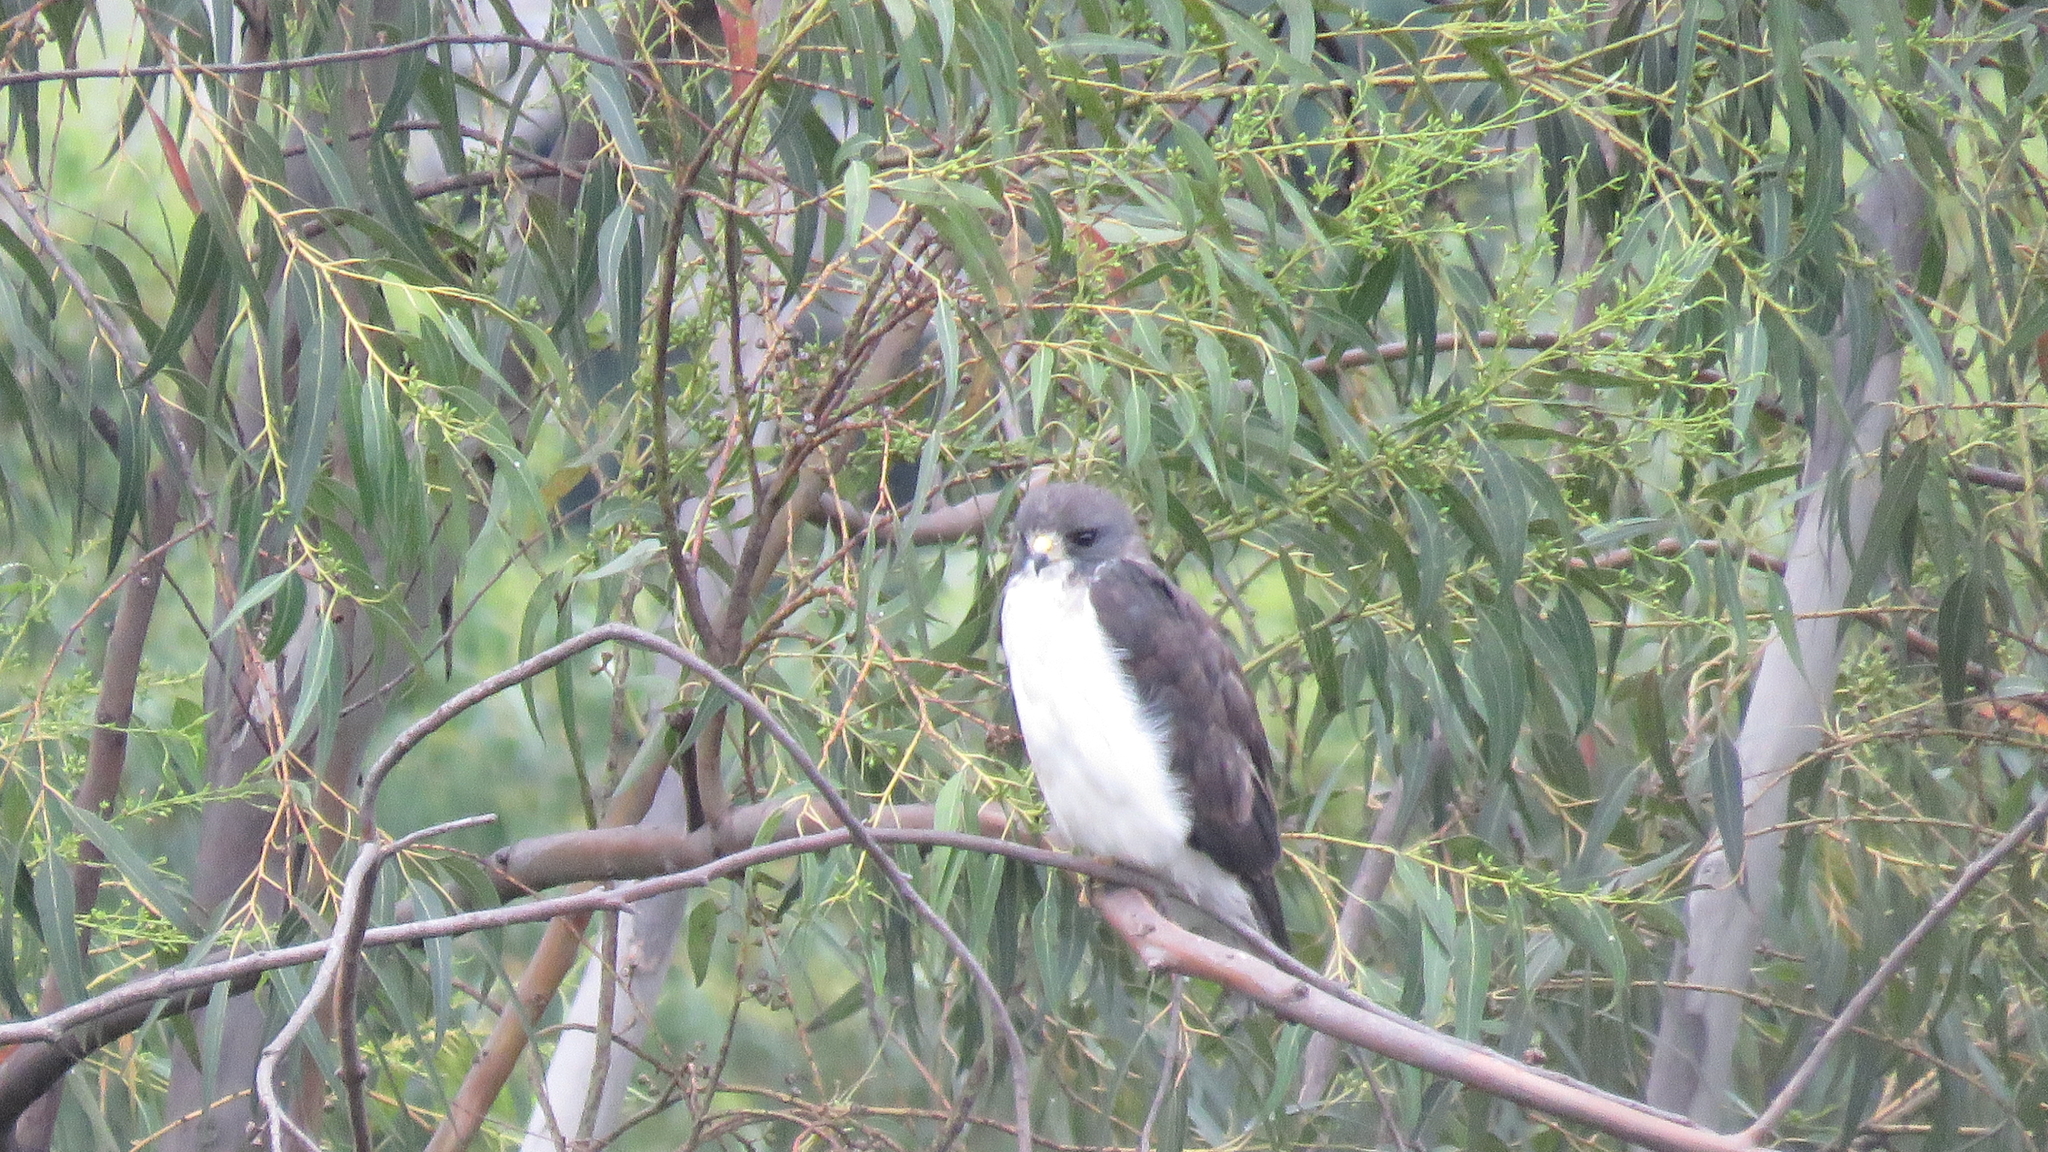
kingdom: Animalia
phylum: Chordata
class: Aves
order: Accipitriformes
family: Accipitridae
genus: Buteo
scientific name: Buteo brachyurus
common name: Short-tailed hawk
